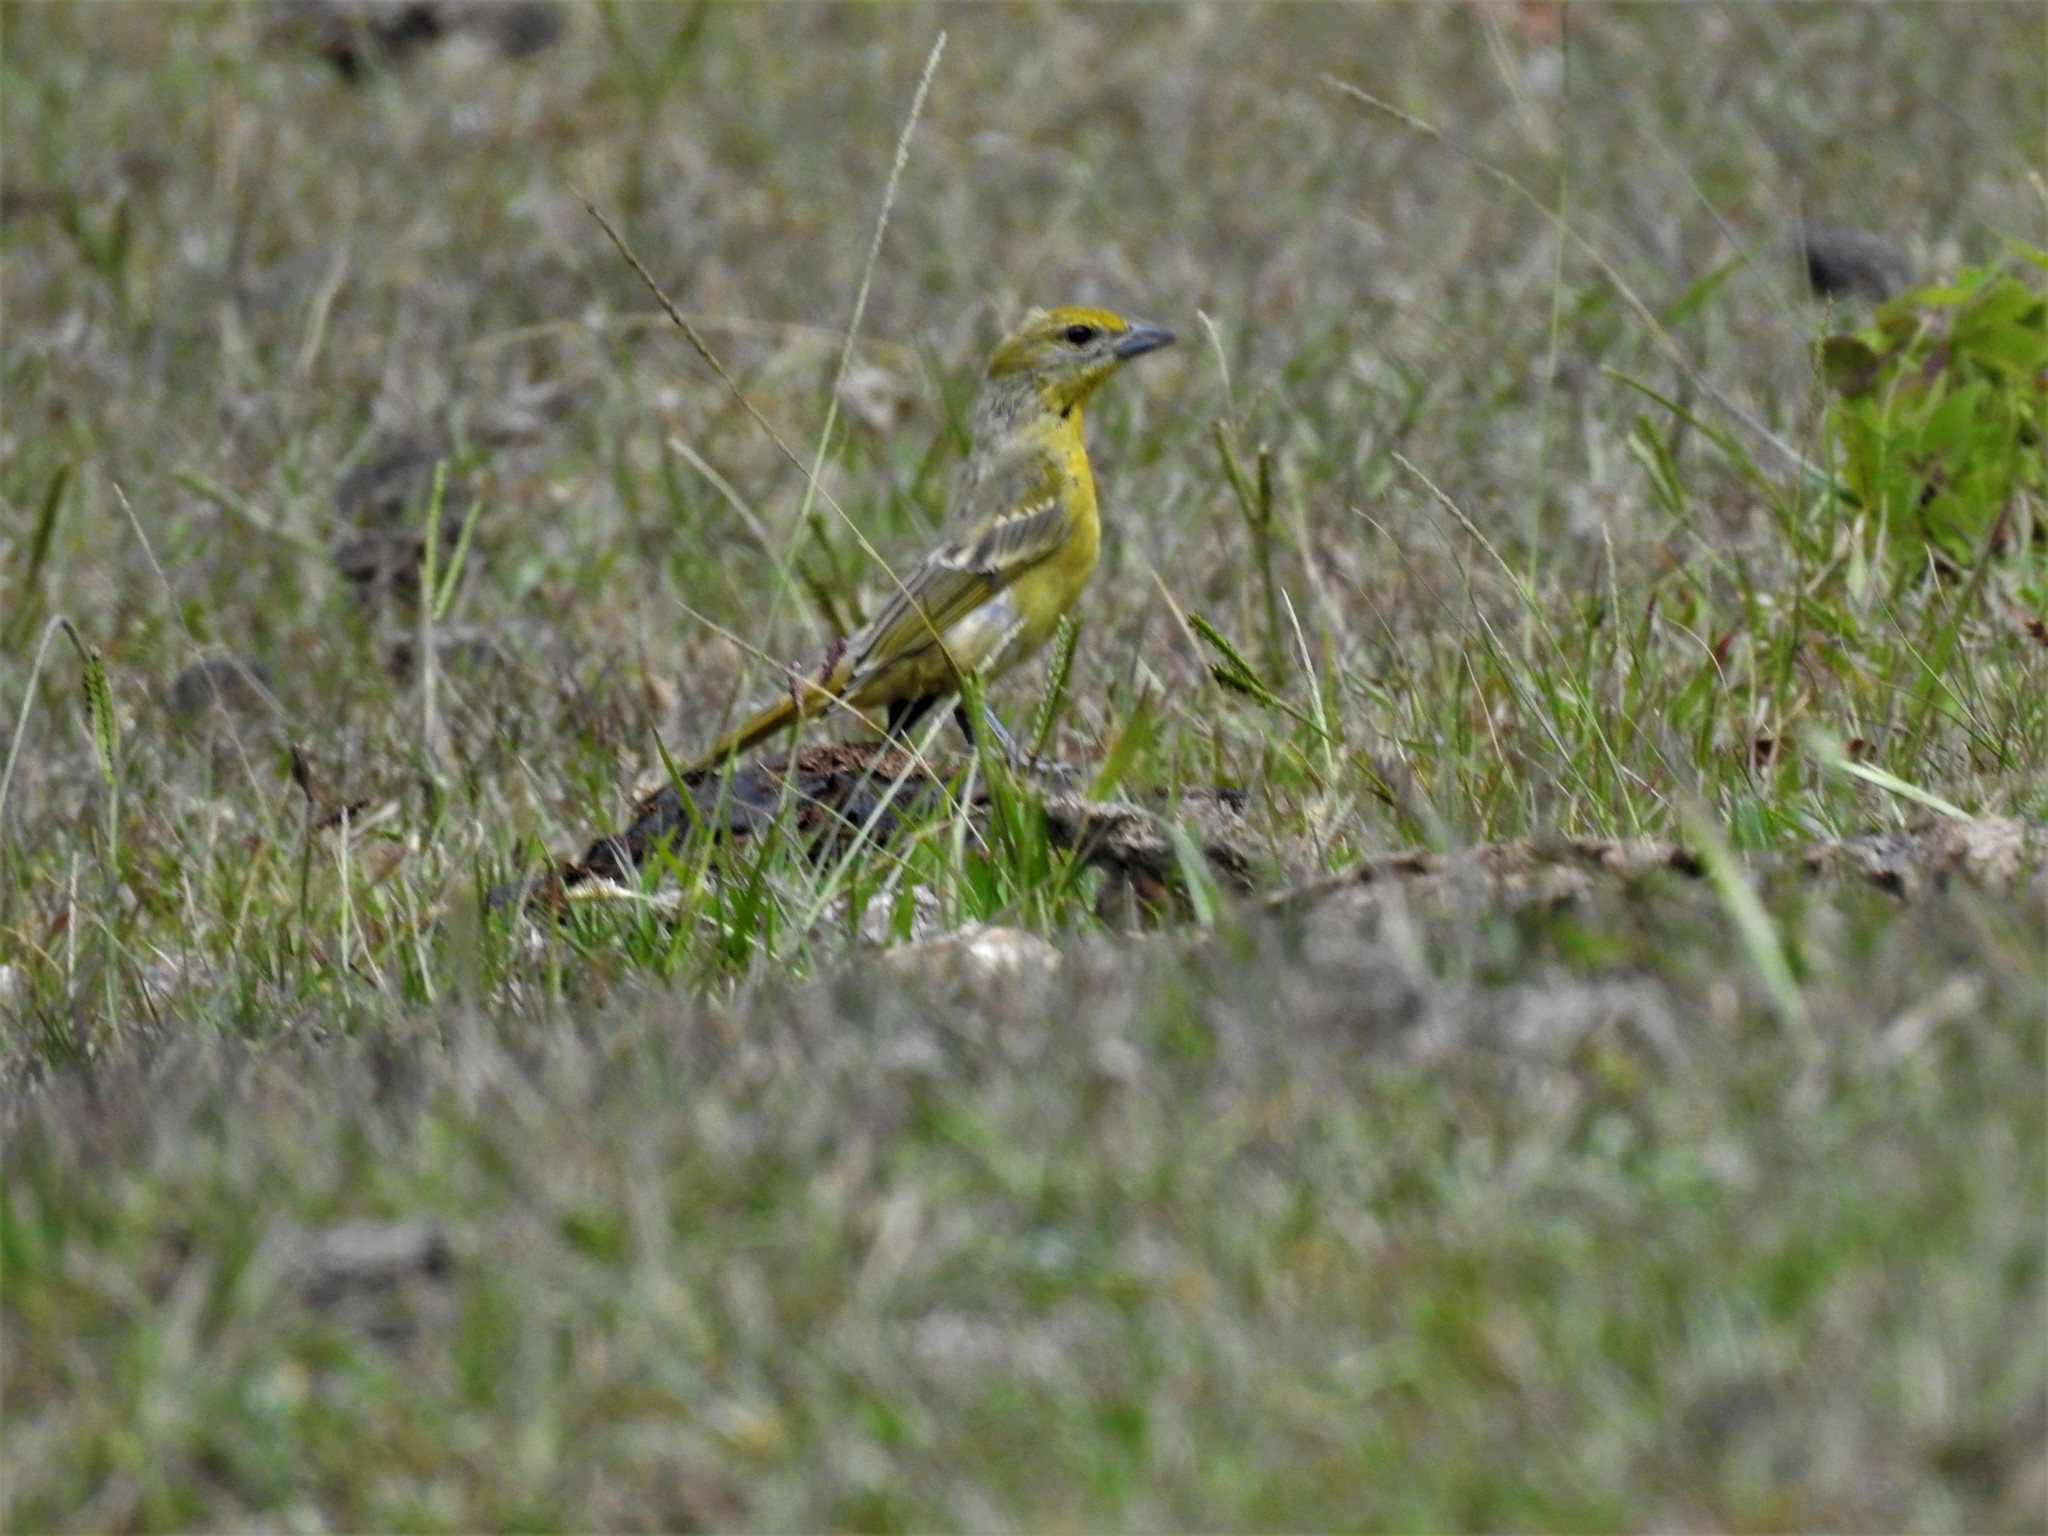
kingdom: Animalia
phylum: Chordata
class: Aves
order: Passeriformes
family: Cardinalidae
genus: Piranga
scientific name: Piranga flava
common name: Red tanager
